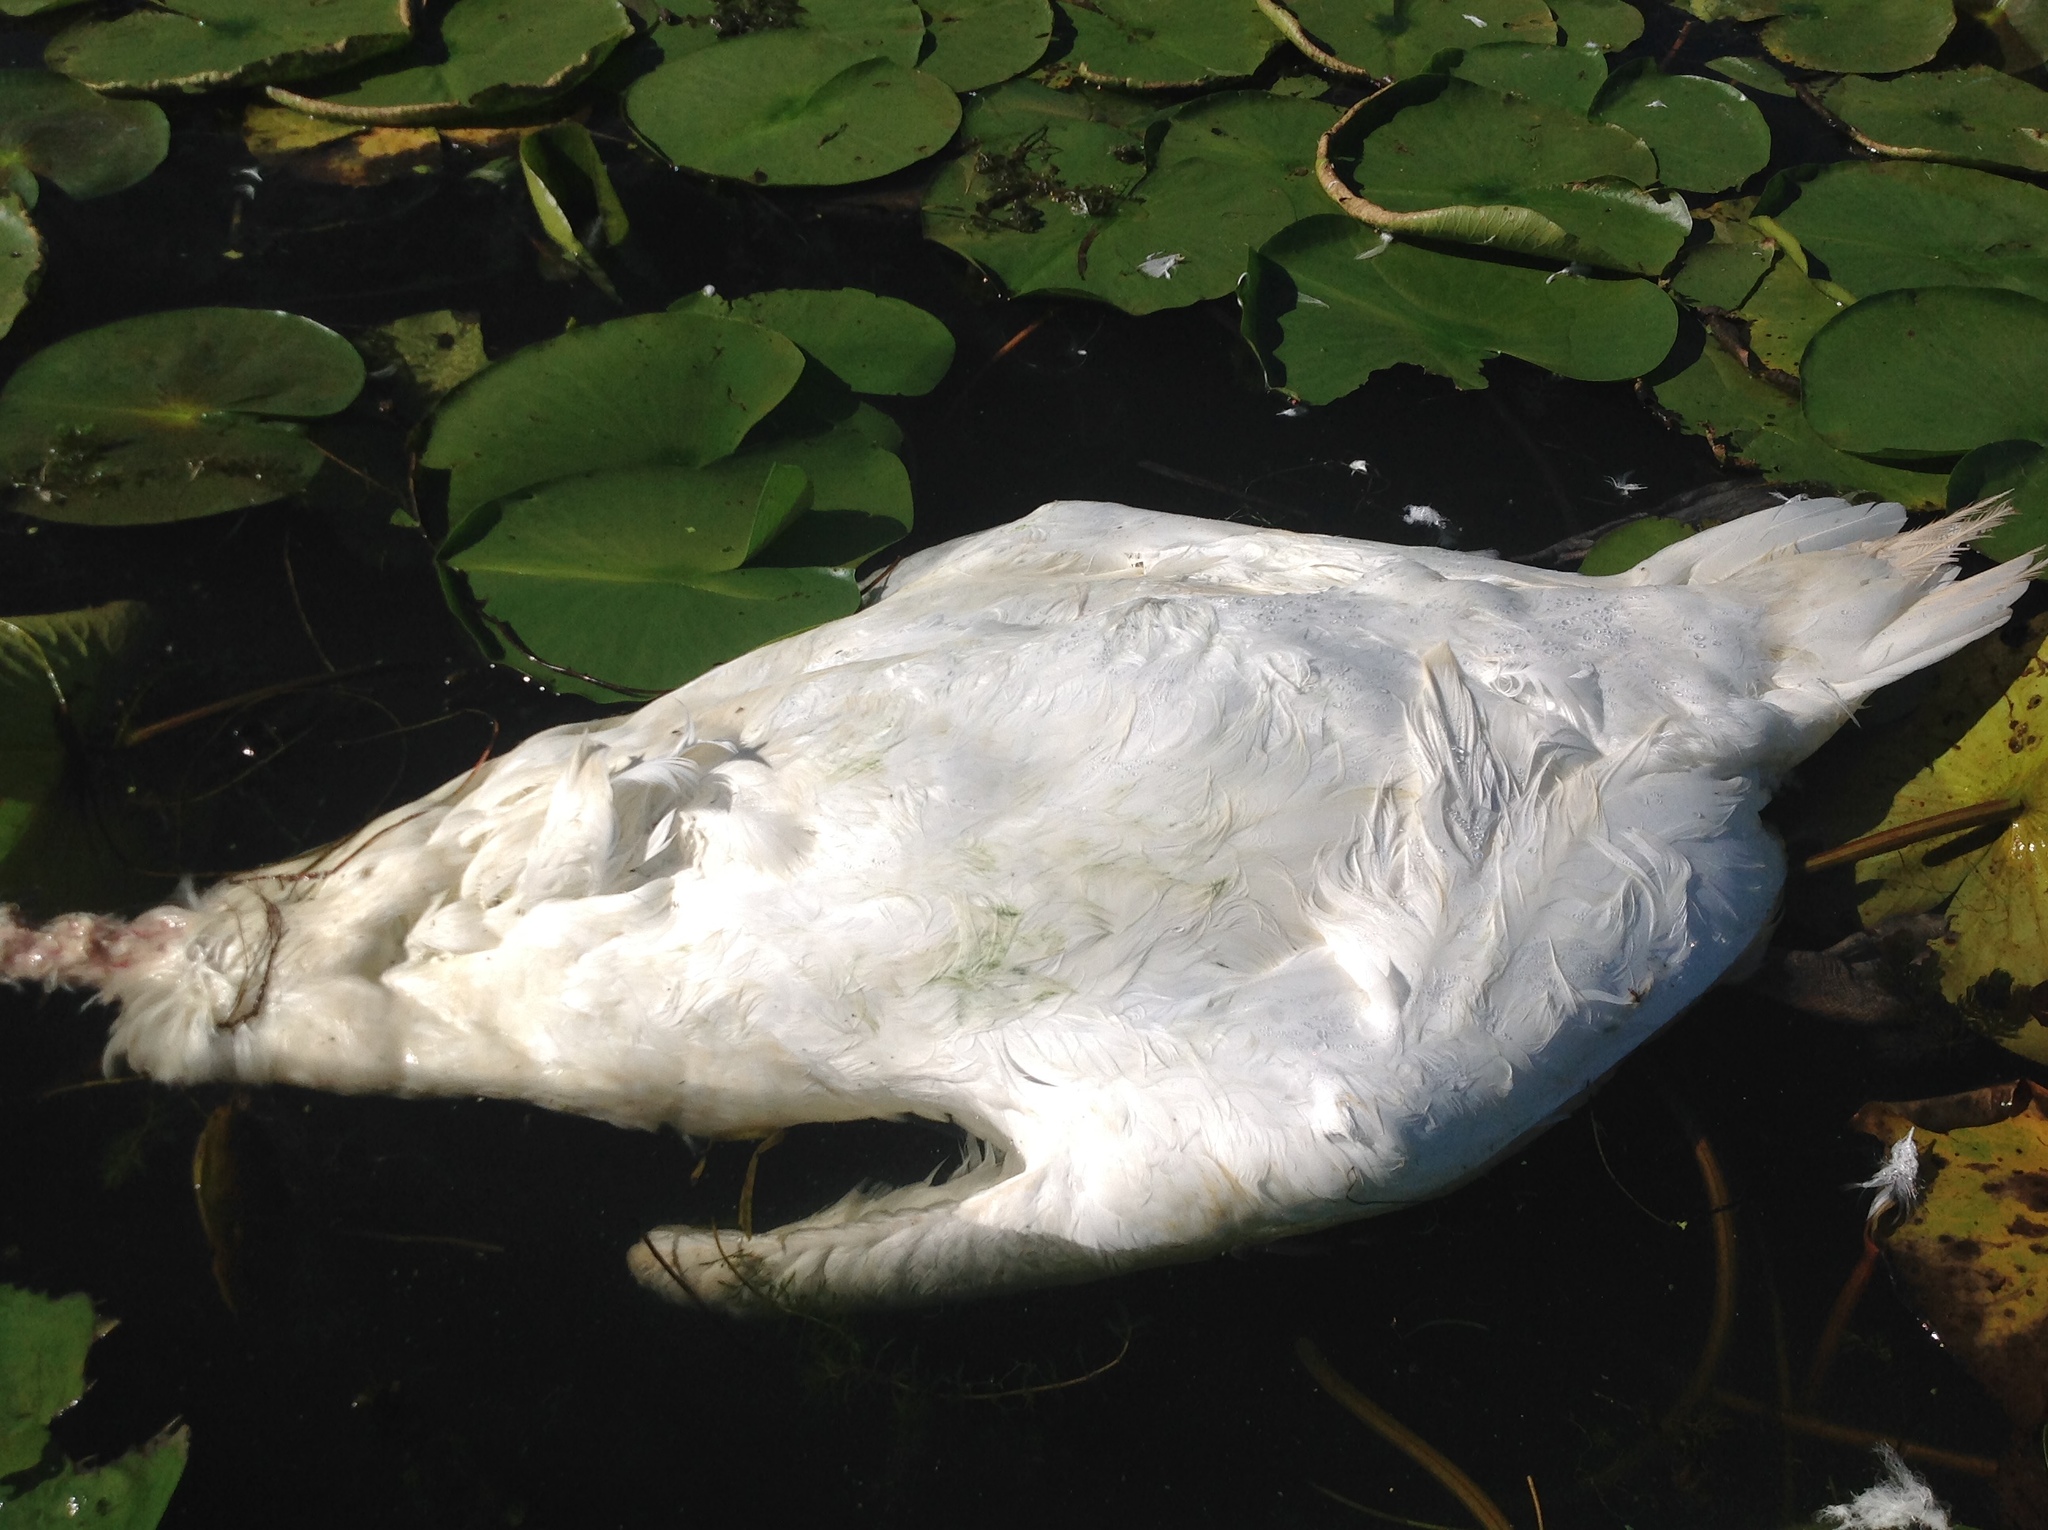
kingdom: Animalia
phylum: Chordata
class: Aves
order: Anseriformes
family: Anatidae
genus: Cygnus
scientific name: Cygnus olor
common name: Mute swan
